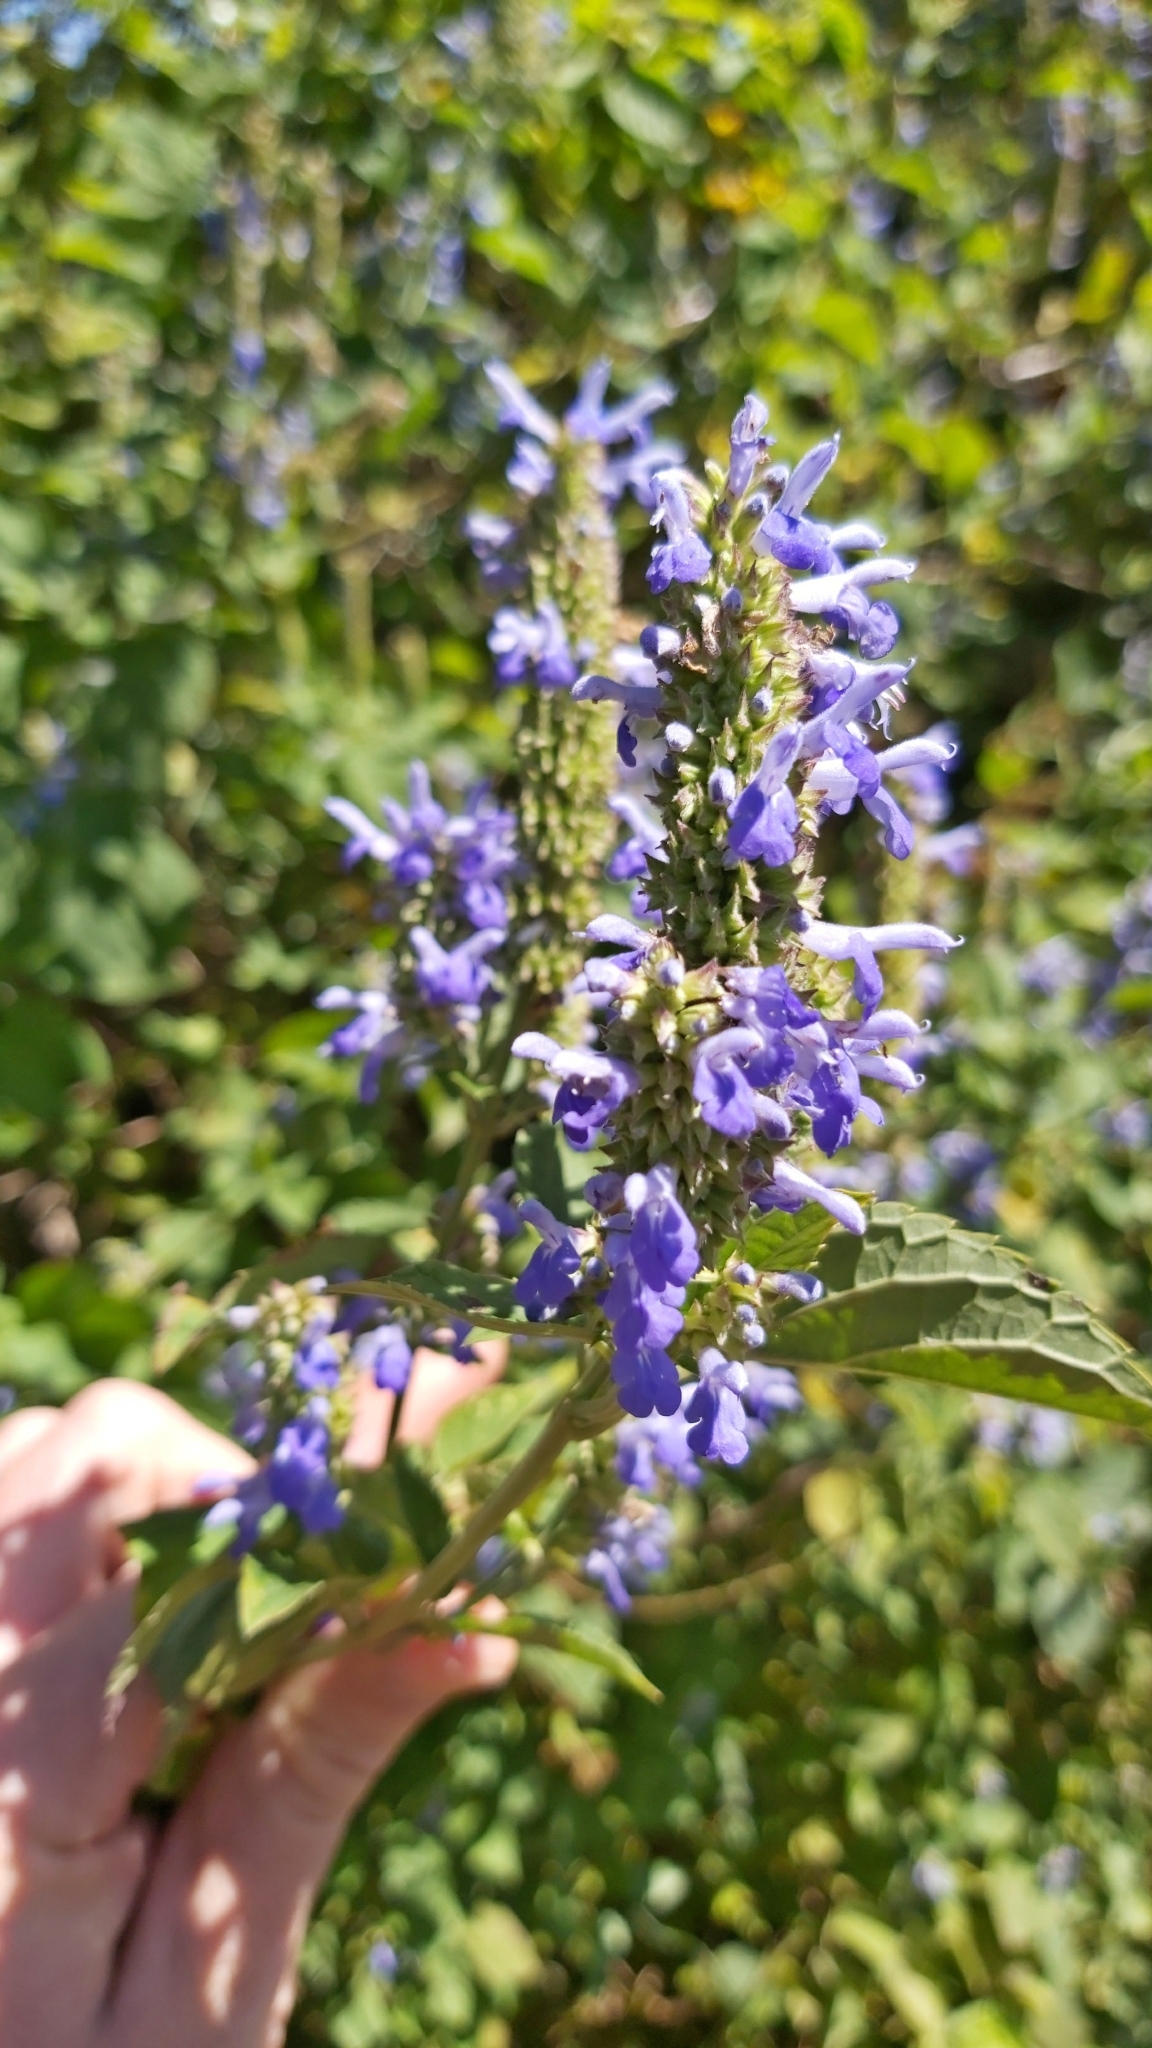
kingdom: Plantae
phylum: Tracheophyta
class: Magnoliopsida
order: Lamiales
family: Lamiaceae
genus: Salvia
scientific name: Salvia polystachia
